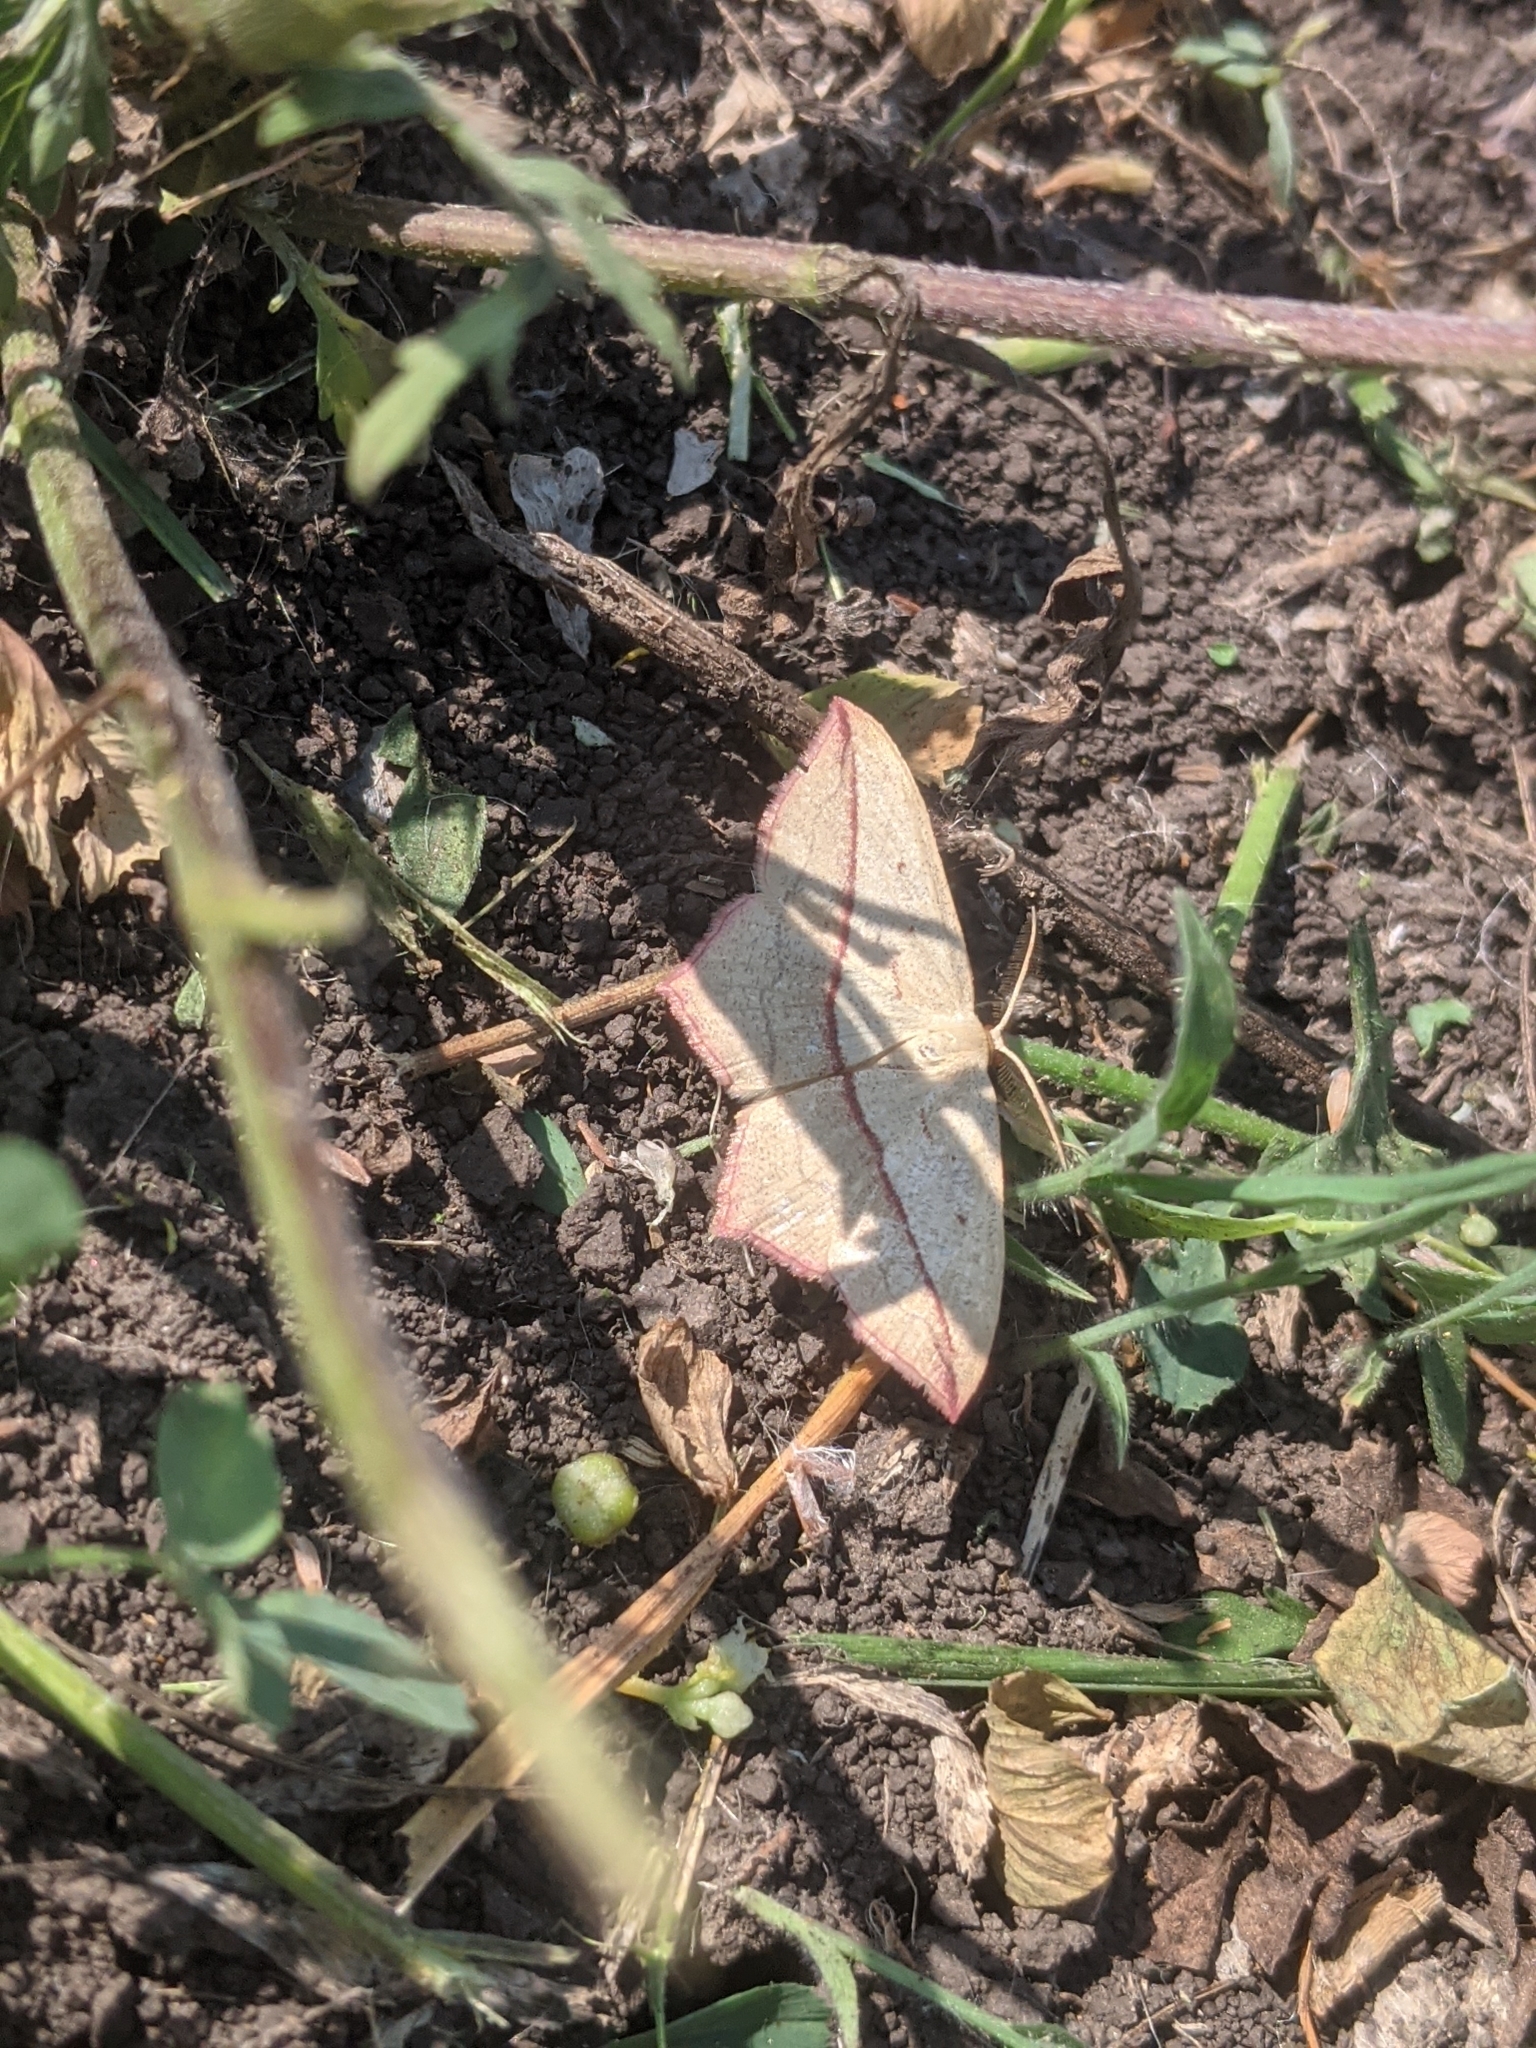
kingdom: Animalia
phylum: Arthropoda
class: Insecta
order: Lepidoptera
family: Geometridae
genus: Timandra
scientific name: Timandra comae
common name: Blood-vein
